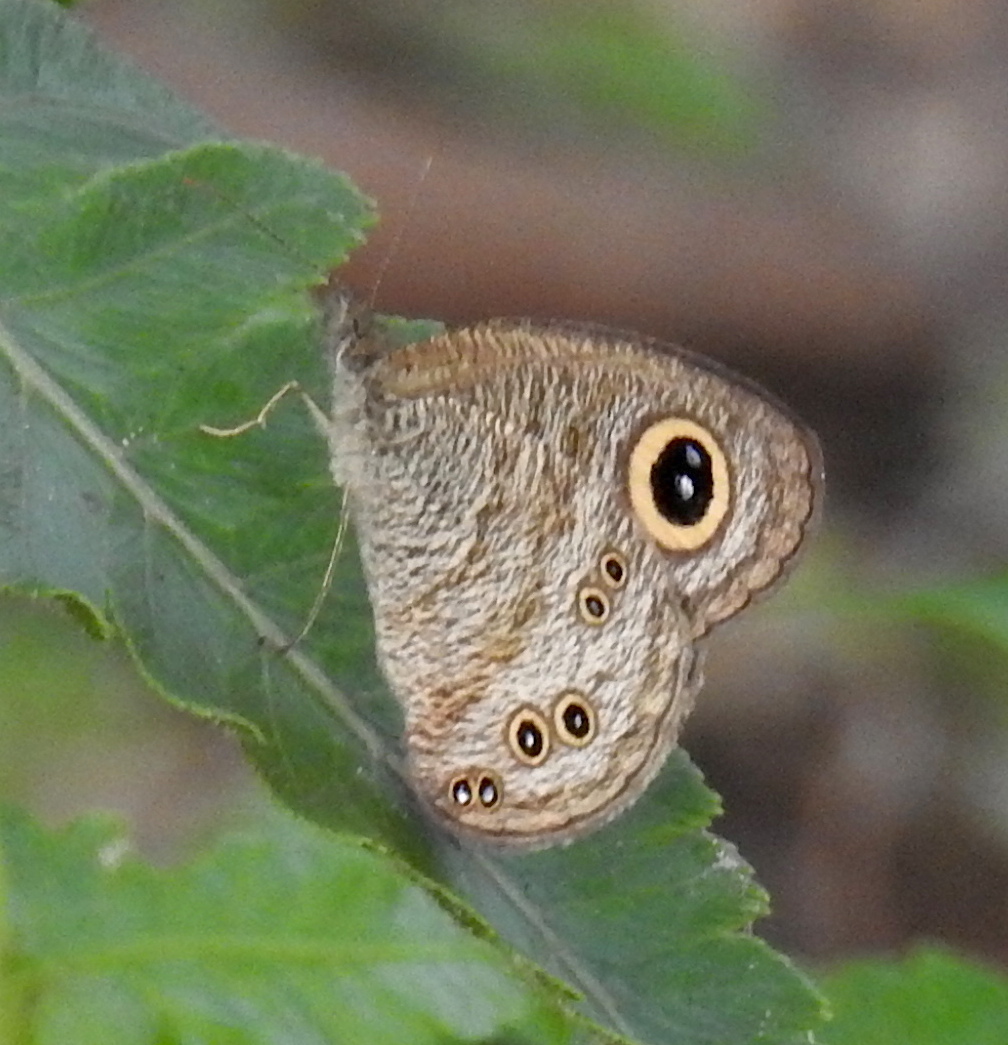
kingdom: Animalia
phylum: Arthropoda
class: Insecta
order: Lepidoptera
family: Nymphalidae
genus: Ypthima
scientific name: Ypthima baldus
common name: Common five-ring
